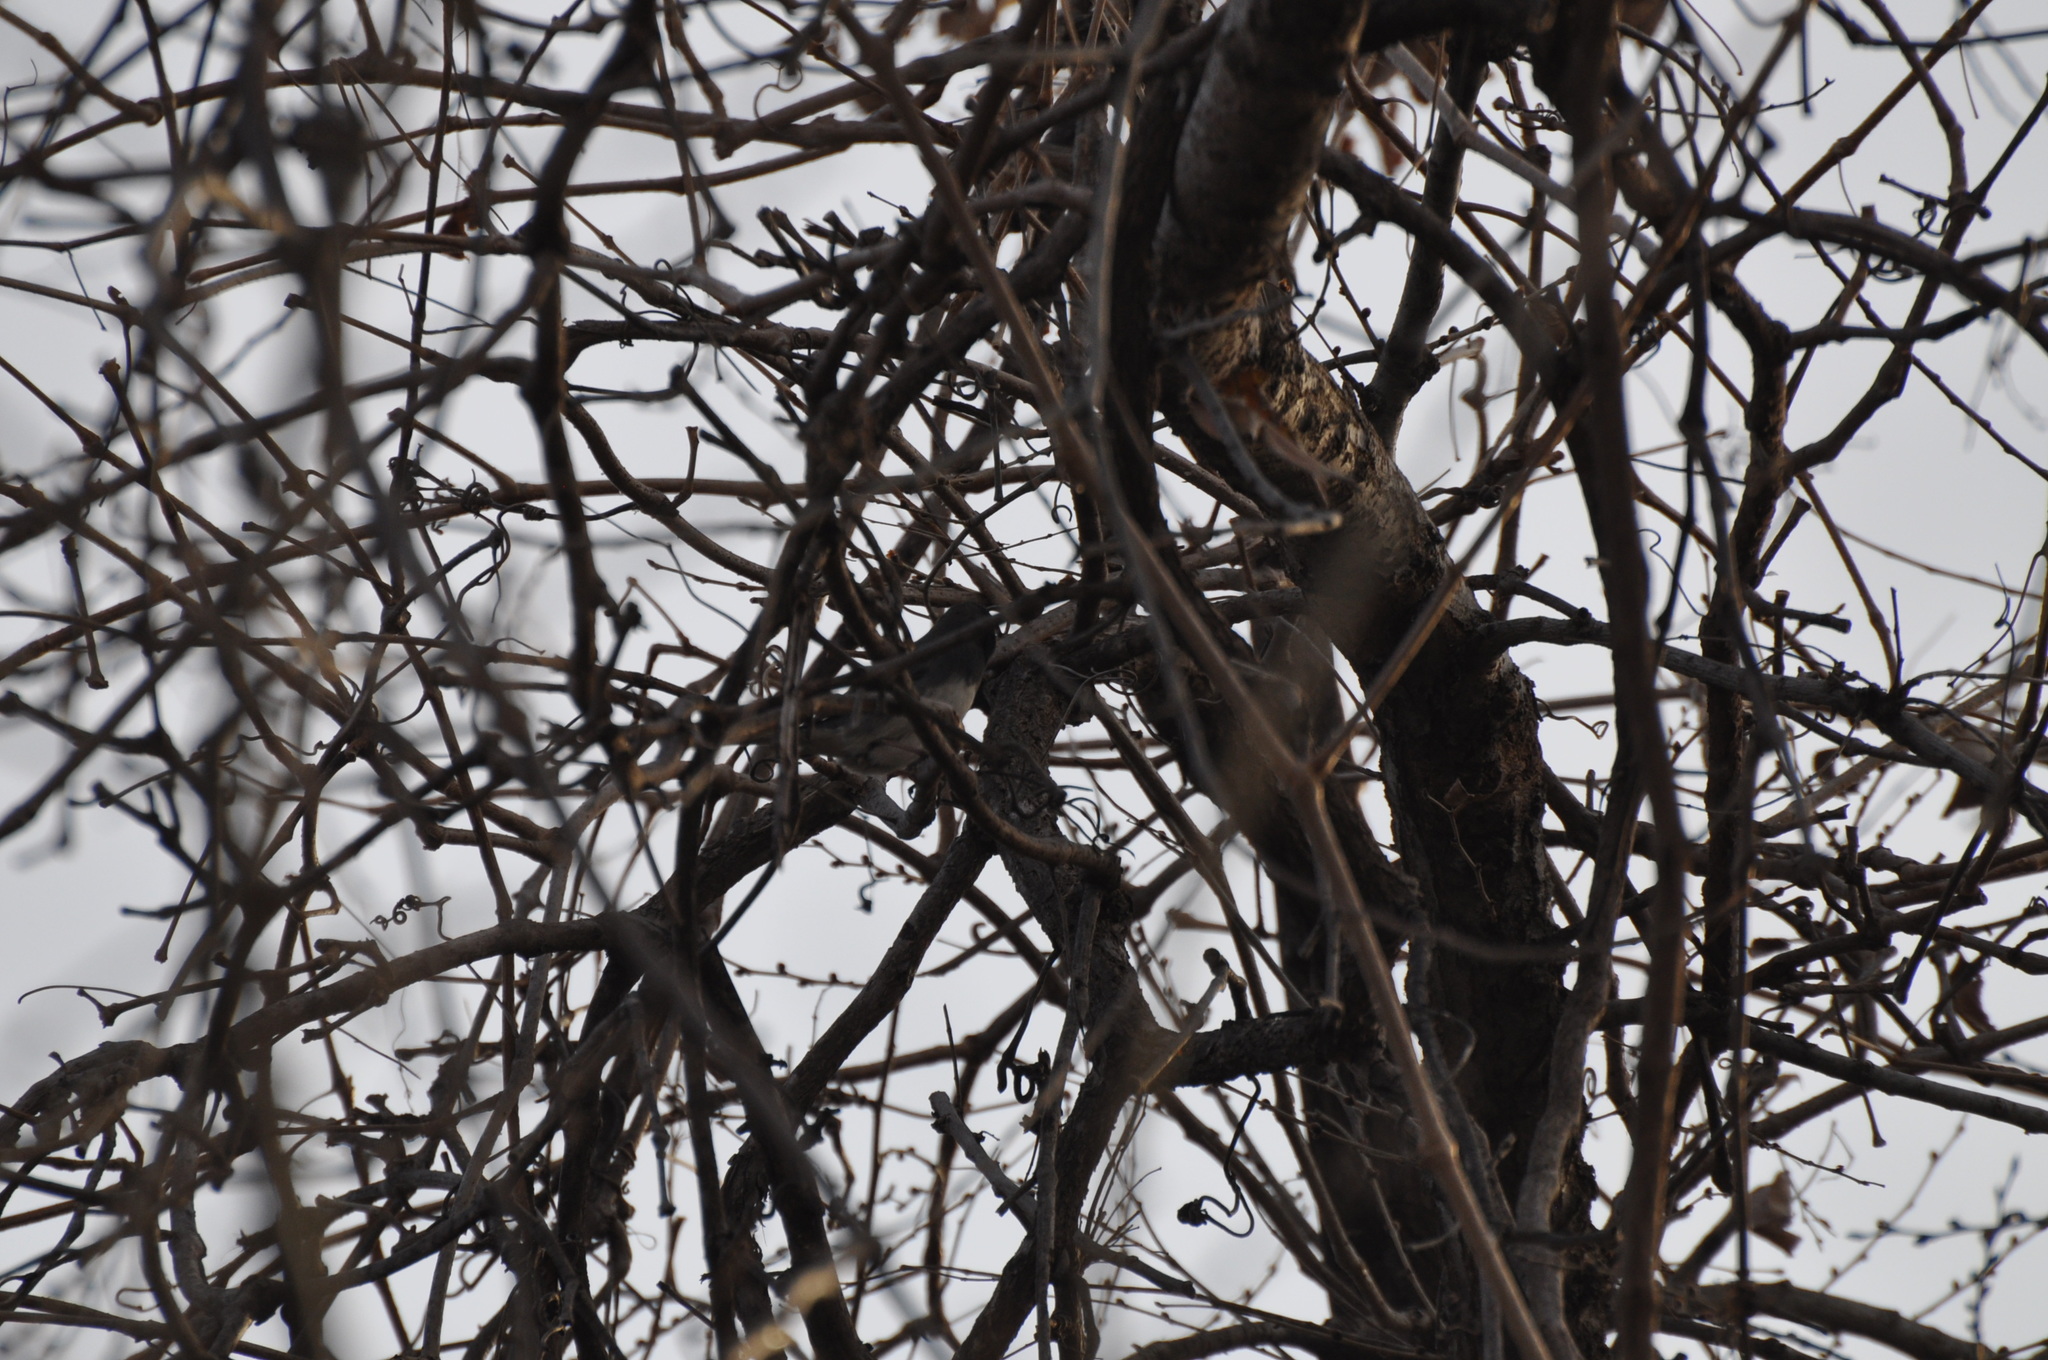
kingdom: Animalia
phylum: Chordata
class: Aves
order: Passeriformes
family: Passerellidae
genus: Junco
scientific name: Junco hyemalis
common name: Dark-eyed junco
